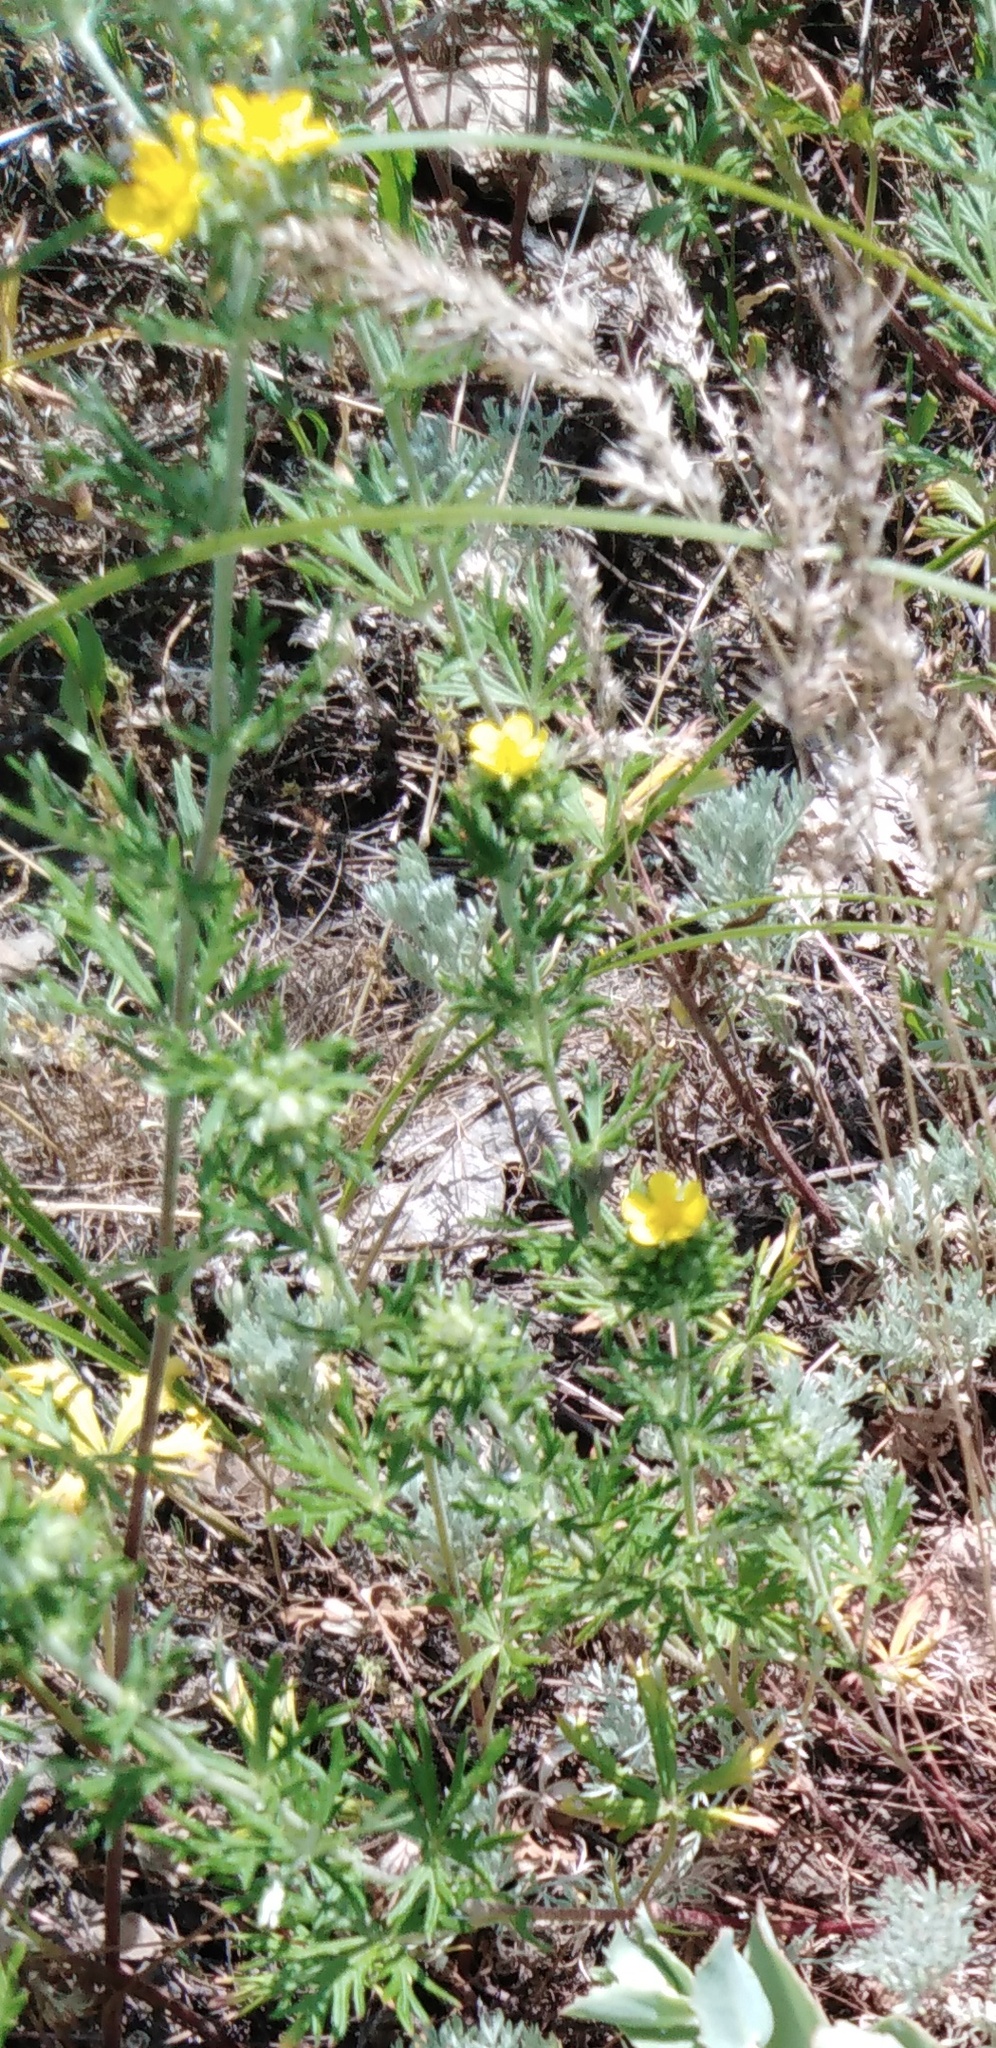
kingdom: Plantae
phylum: Tracheophyta
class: Magnoliopsida
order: Rosales
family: Rosaceae
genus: Potentilla
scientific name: Potentilla argentea
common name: Hoary cinquefoil
